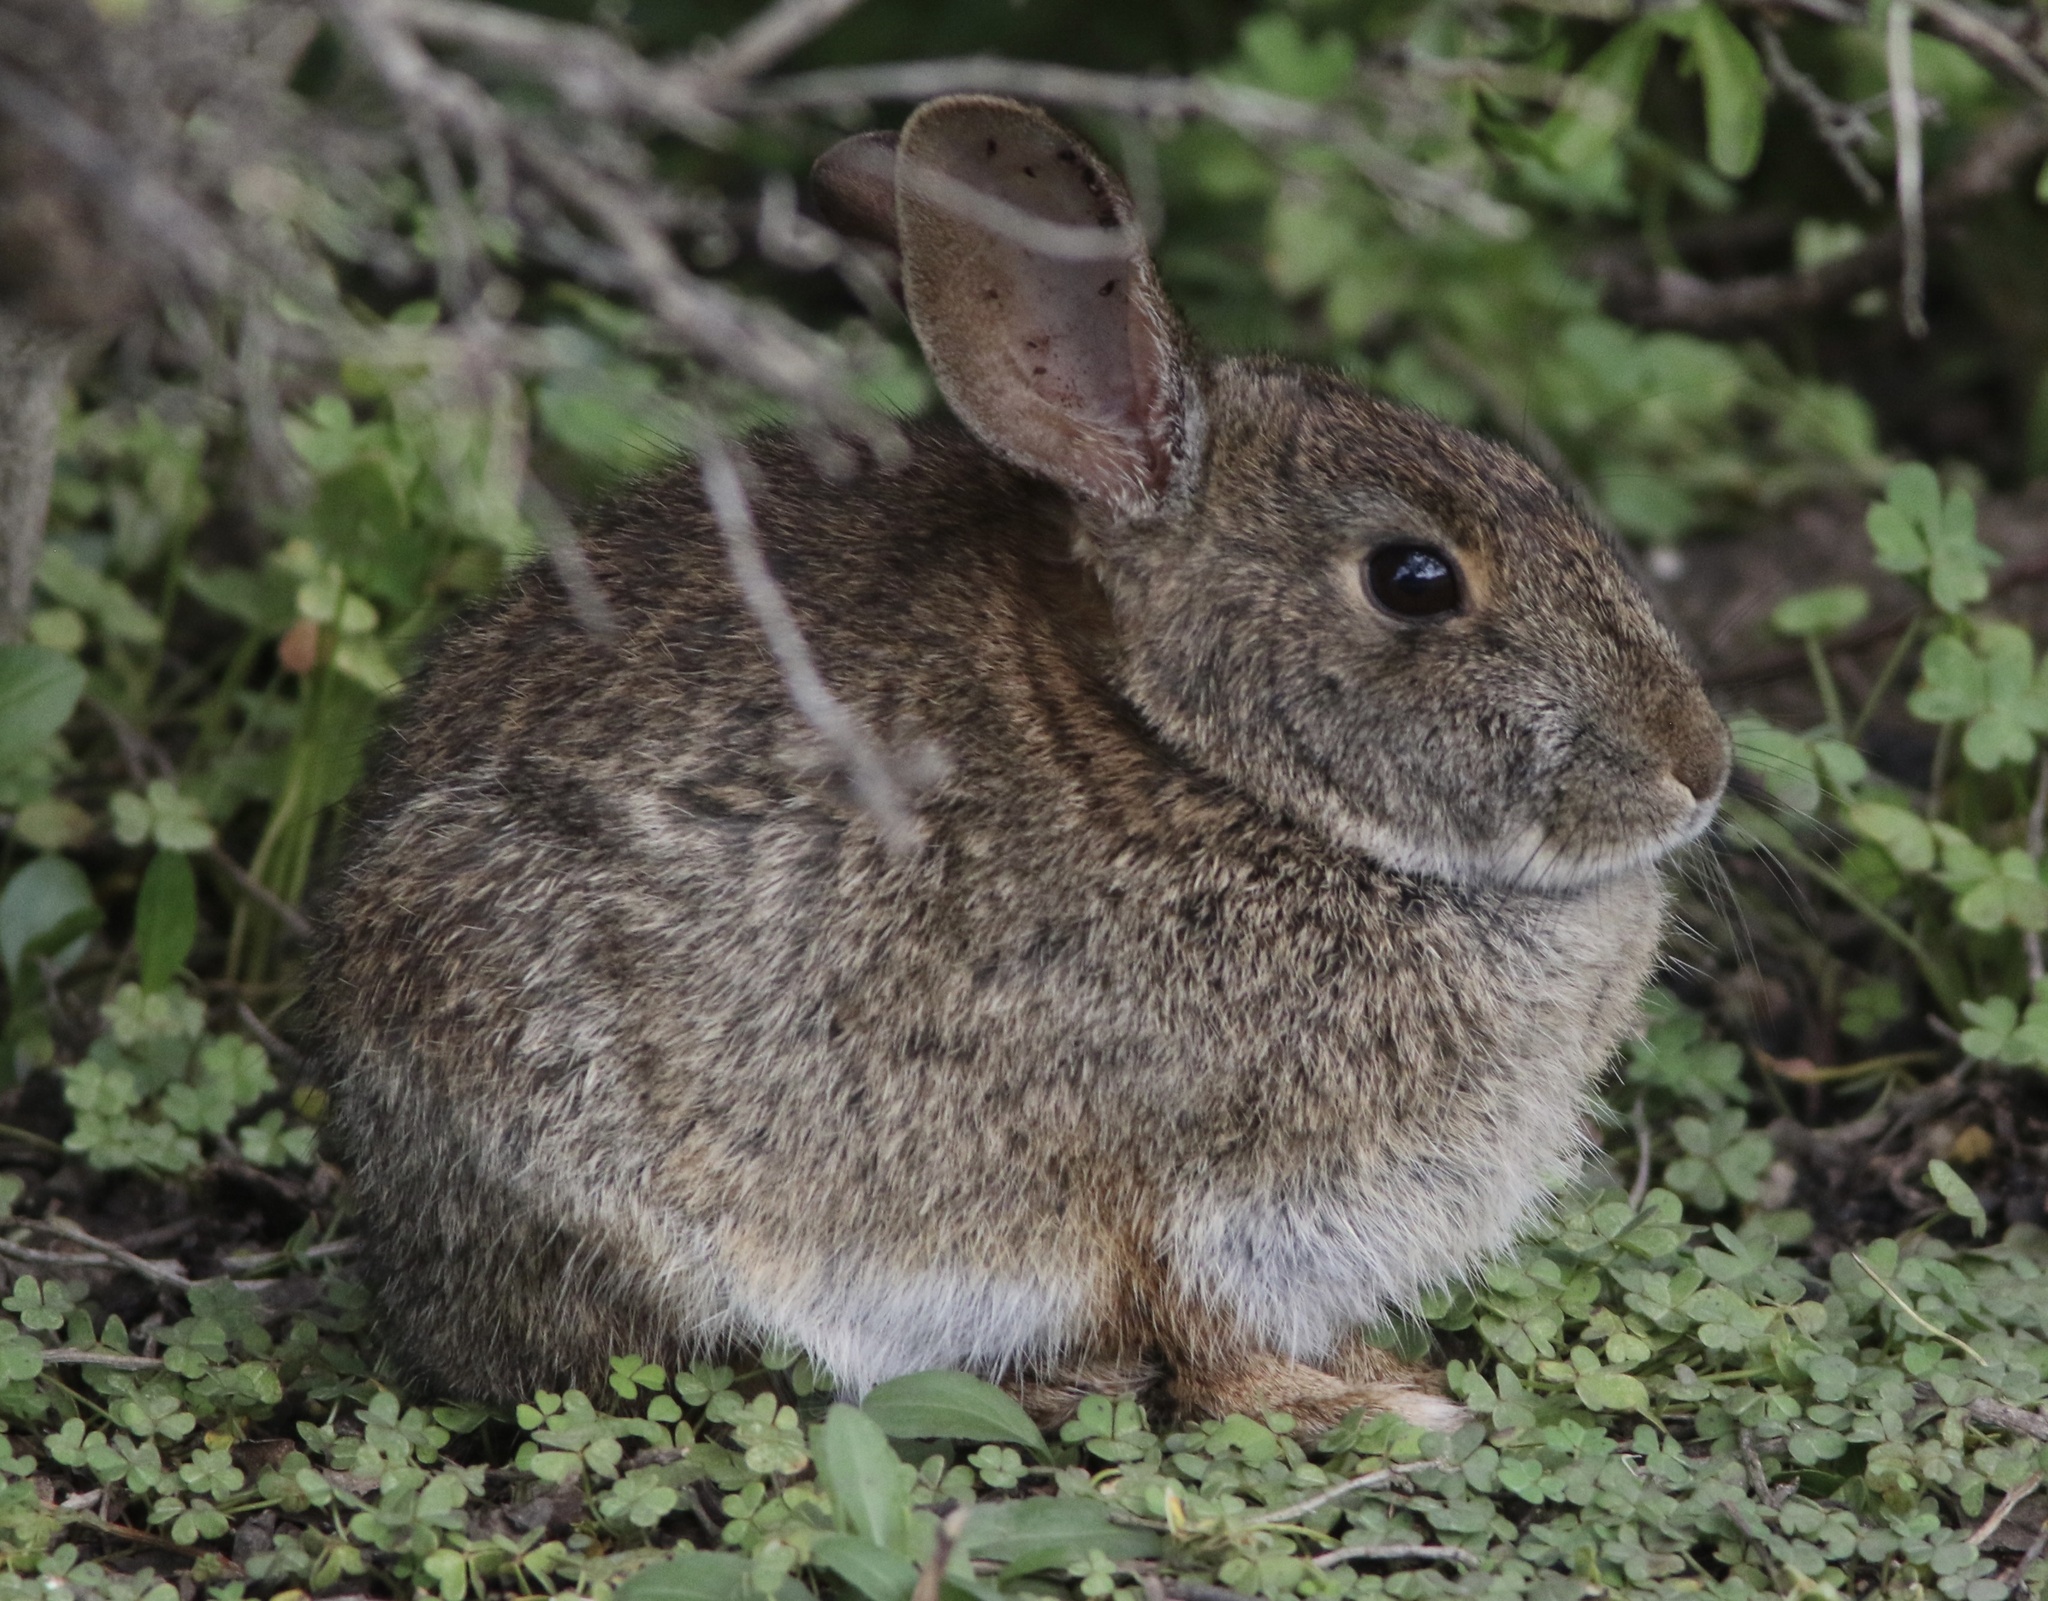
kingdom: Animalia
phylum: Chordata
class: Mammalia
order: Lagomorpha
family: Leporidae
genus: Sylvilagus
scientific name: Sylvilagus bachmani
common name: Brush rabbit
